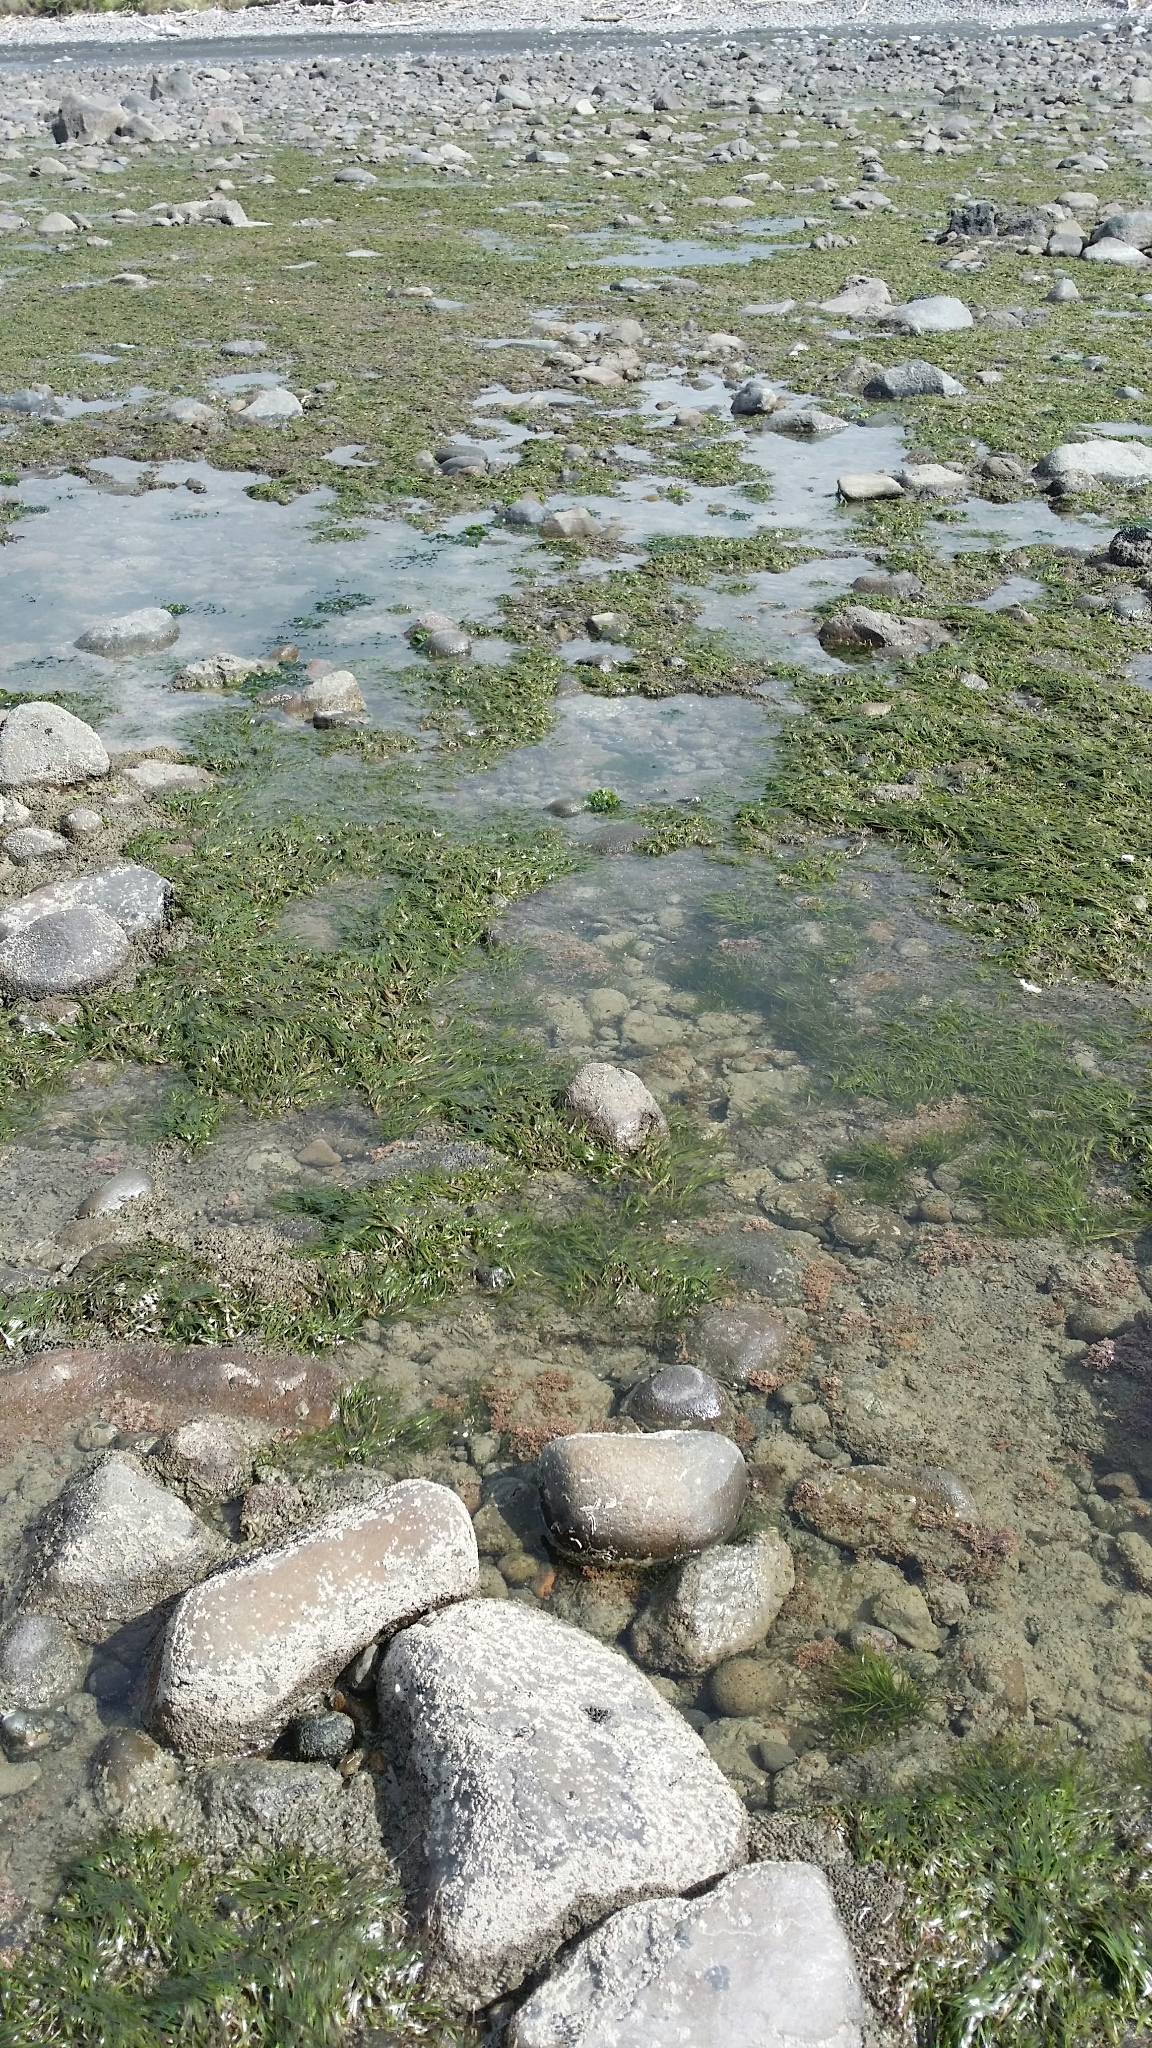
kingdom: Plantae
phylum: Tracheophyta
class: Liliopsida
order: Alismatales
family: Zosteraceae
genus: Zostera
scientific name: Zostera novazelandica
